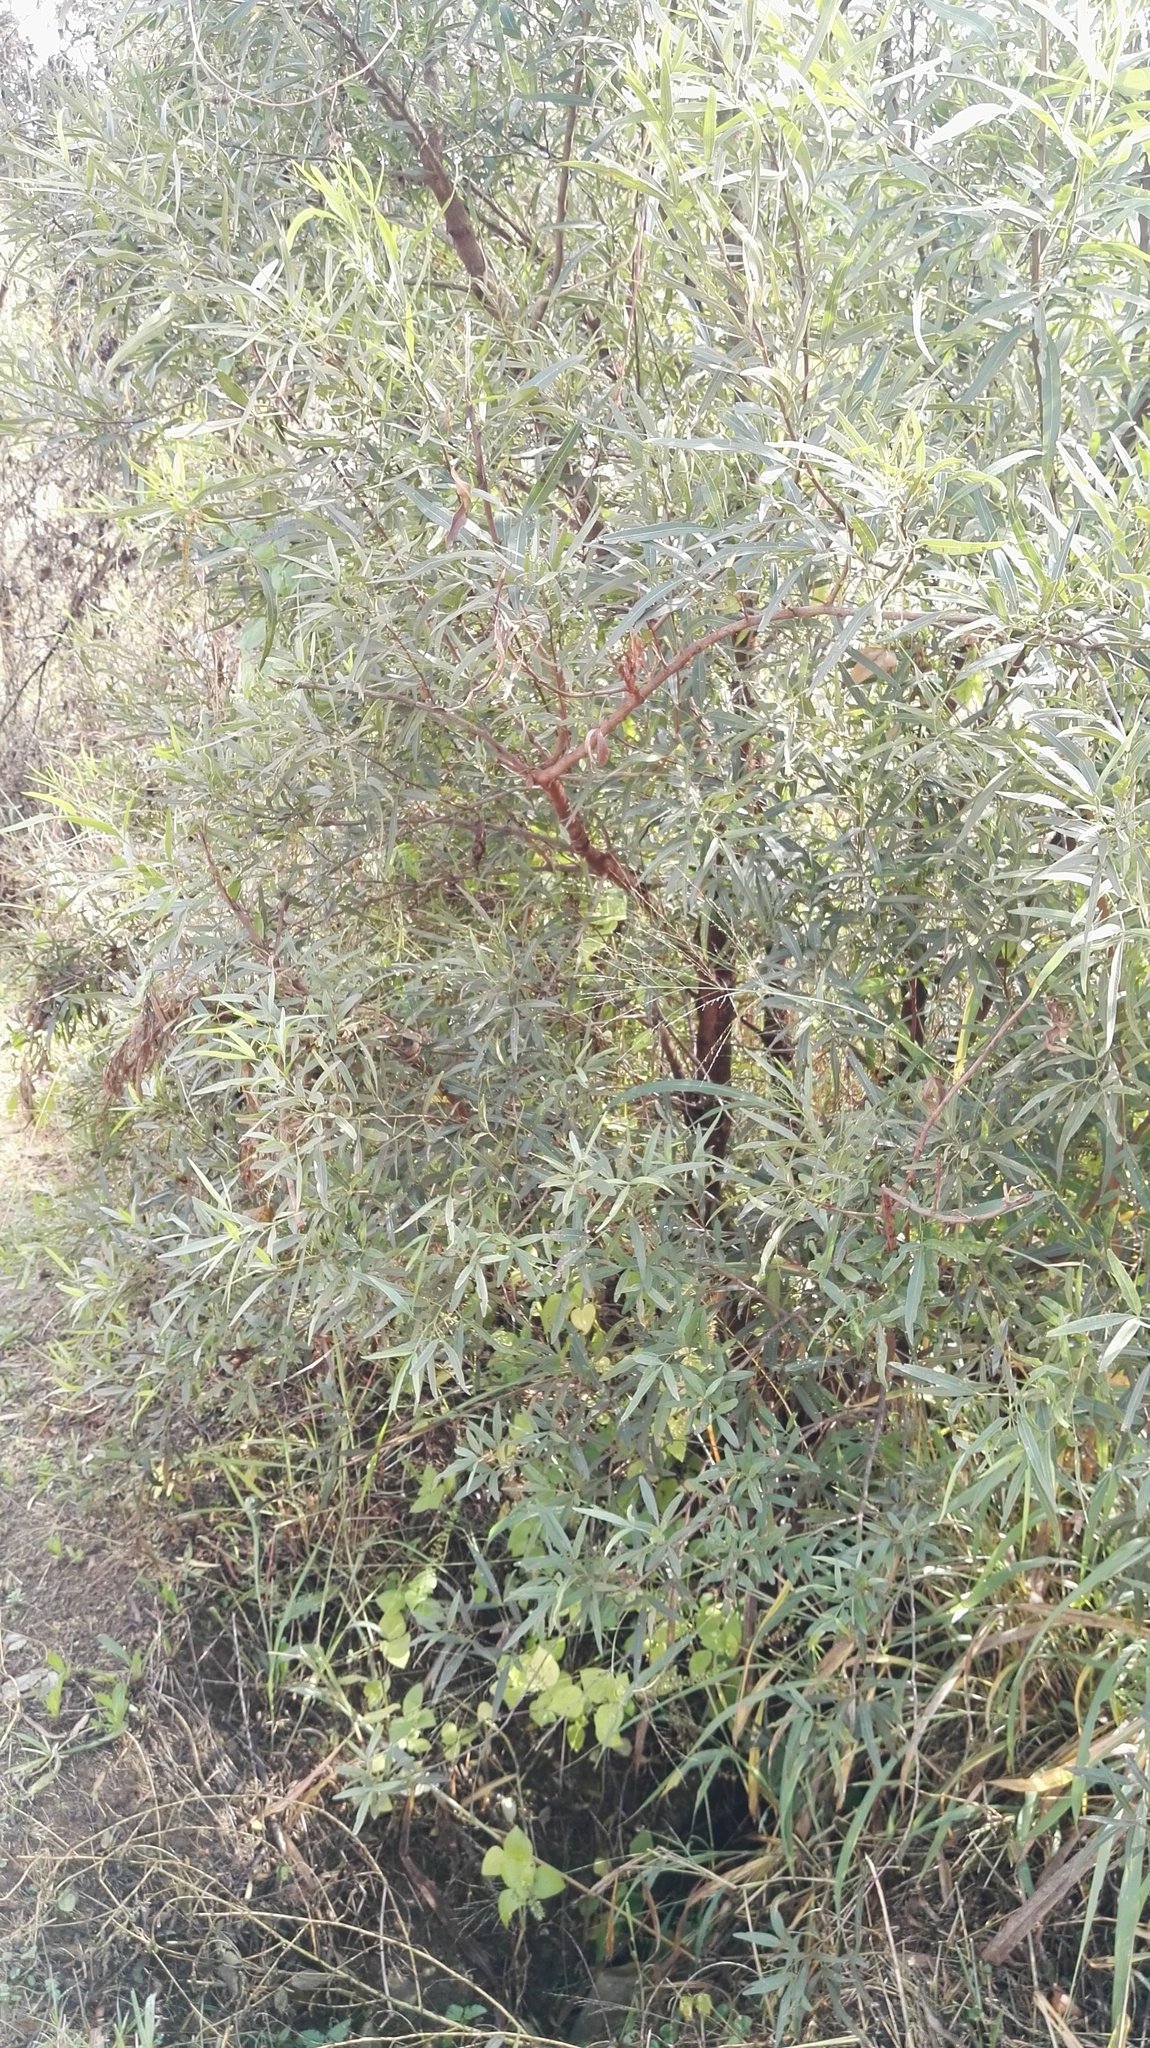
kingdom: Plantae
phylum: Tracheophyta
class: Magnoliopsida
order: Sapindales
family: Anacardiaceae
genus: Searsia
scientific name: Searsia lancea
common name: Cashew
